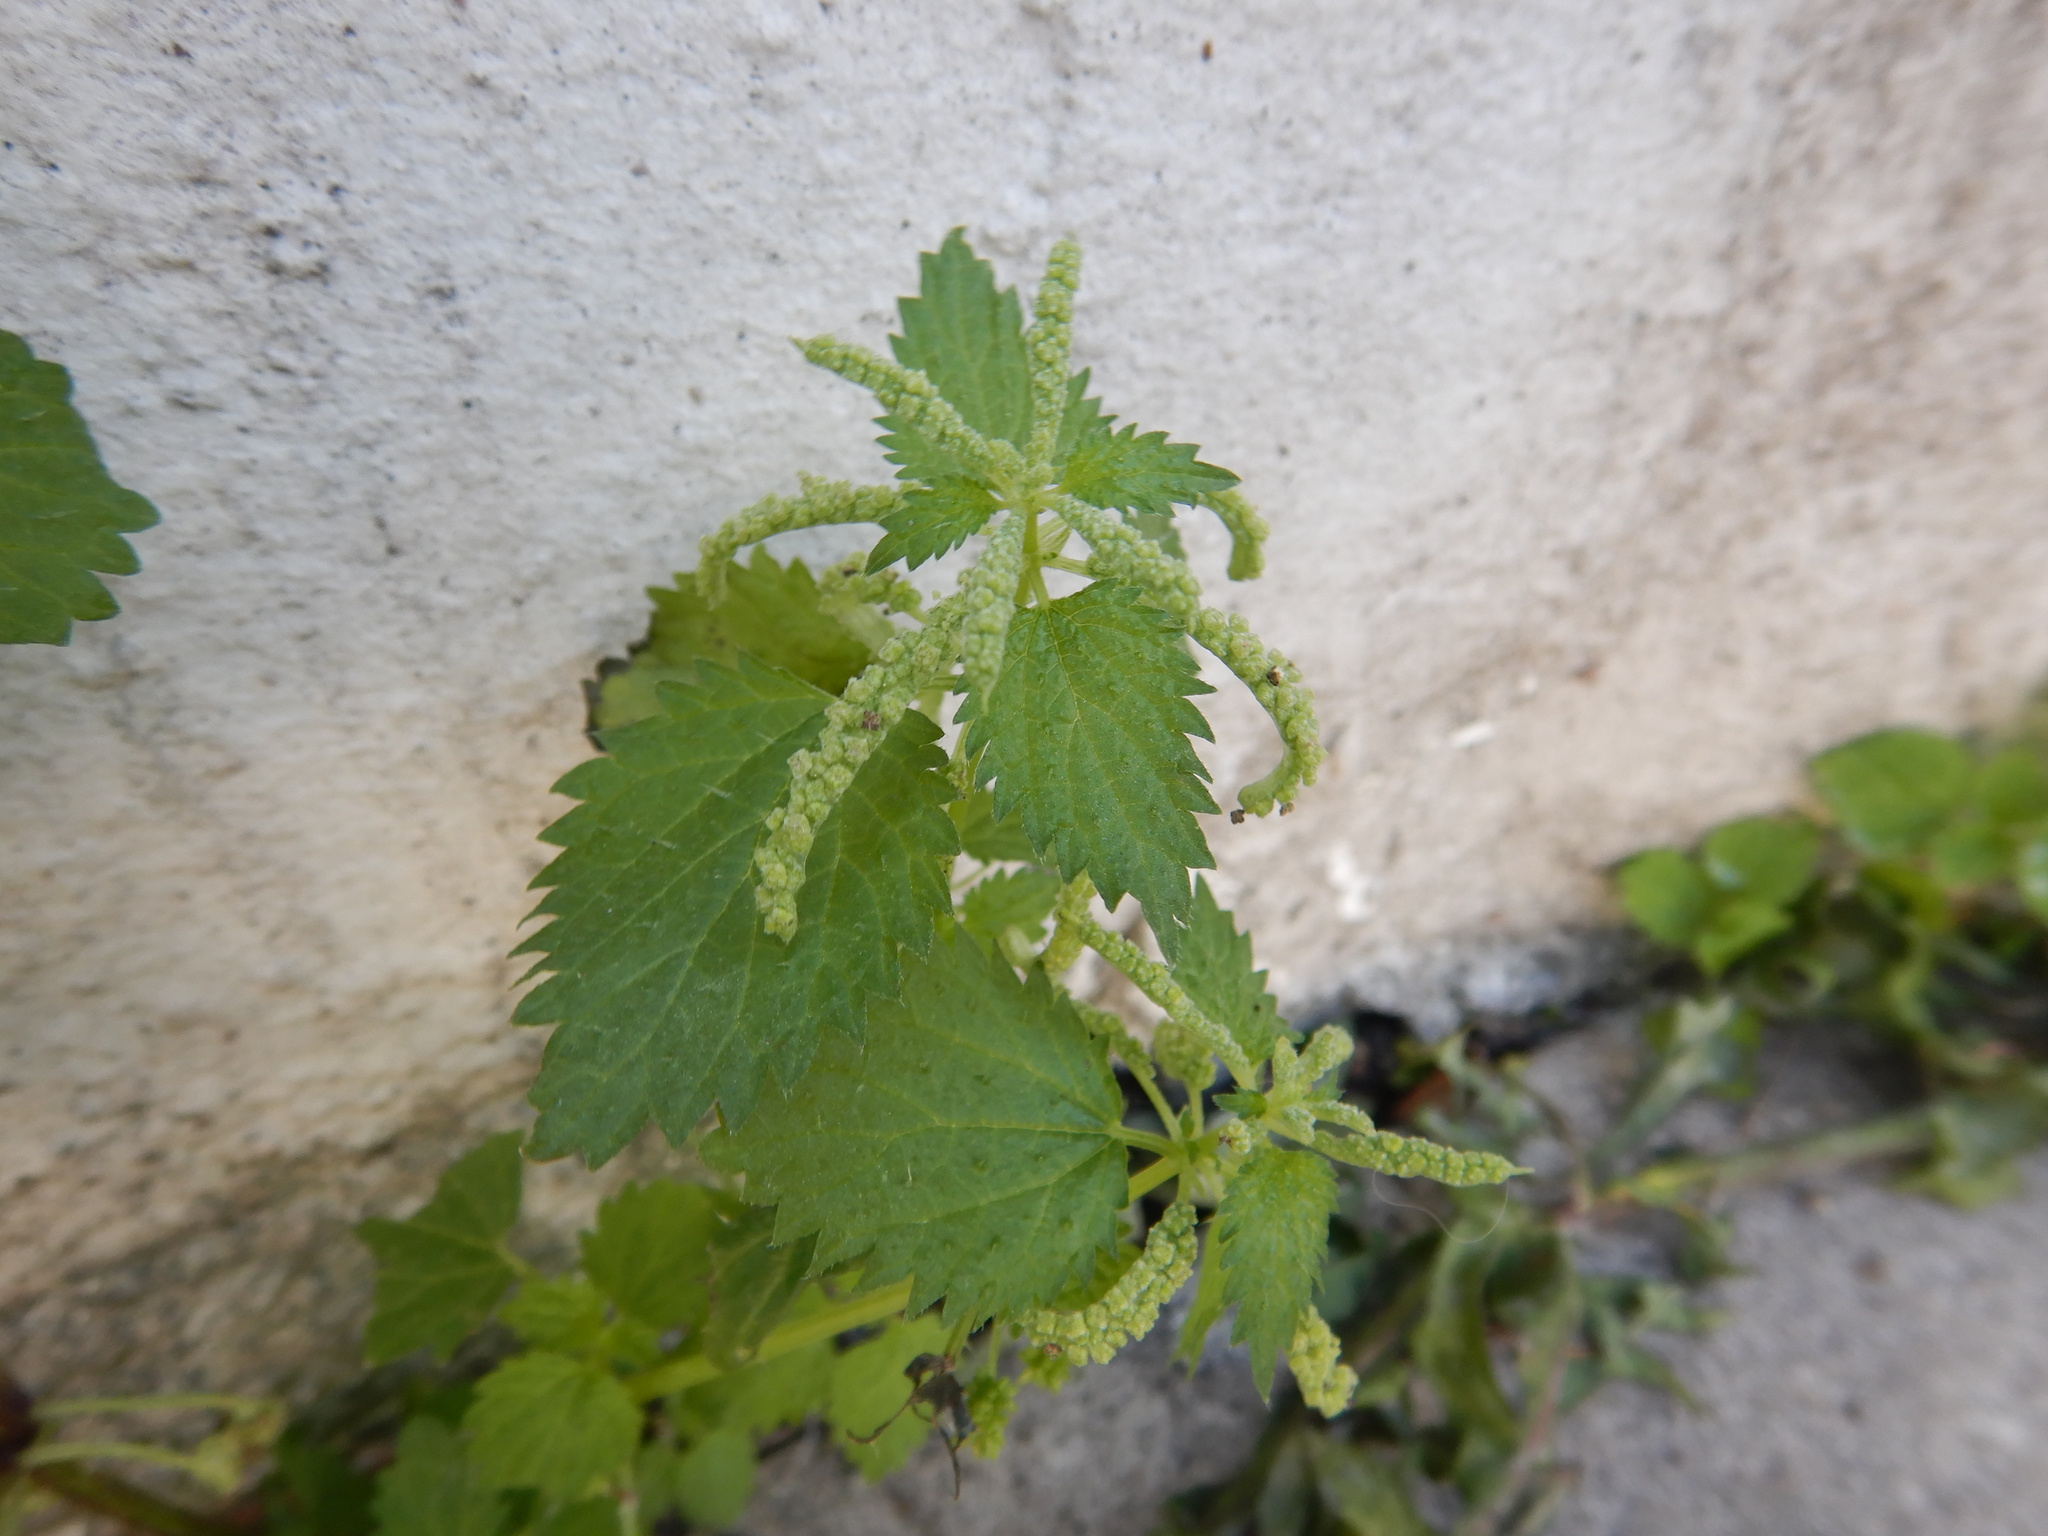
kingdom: Plantae
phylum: Tracheophyta
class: Magnoliopsida
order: Rosales
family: Urticaceae
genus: Urtica
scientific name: Urtica membranacea
